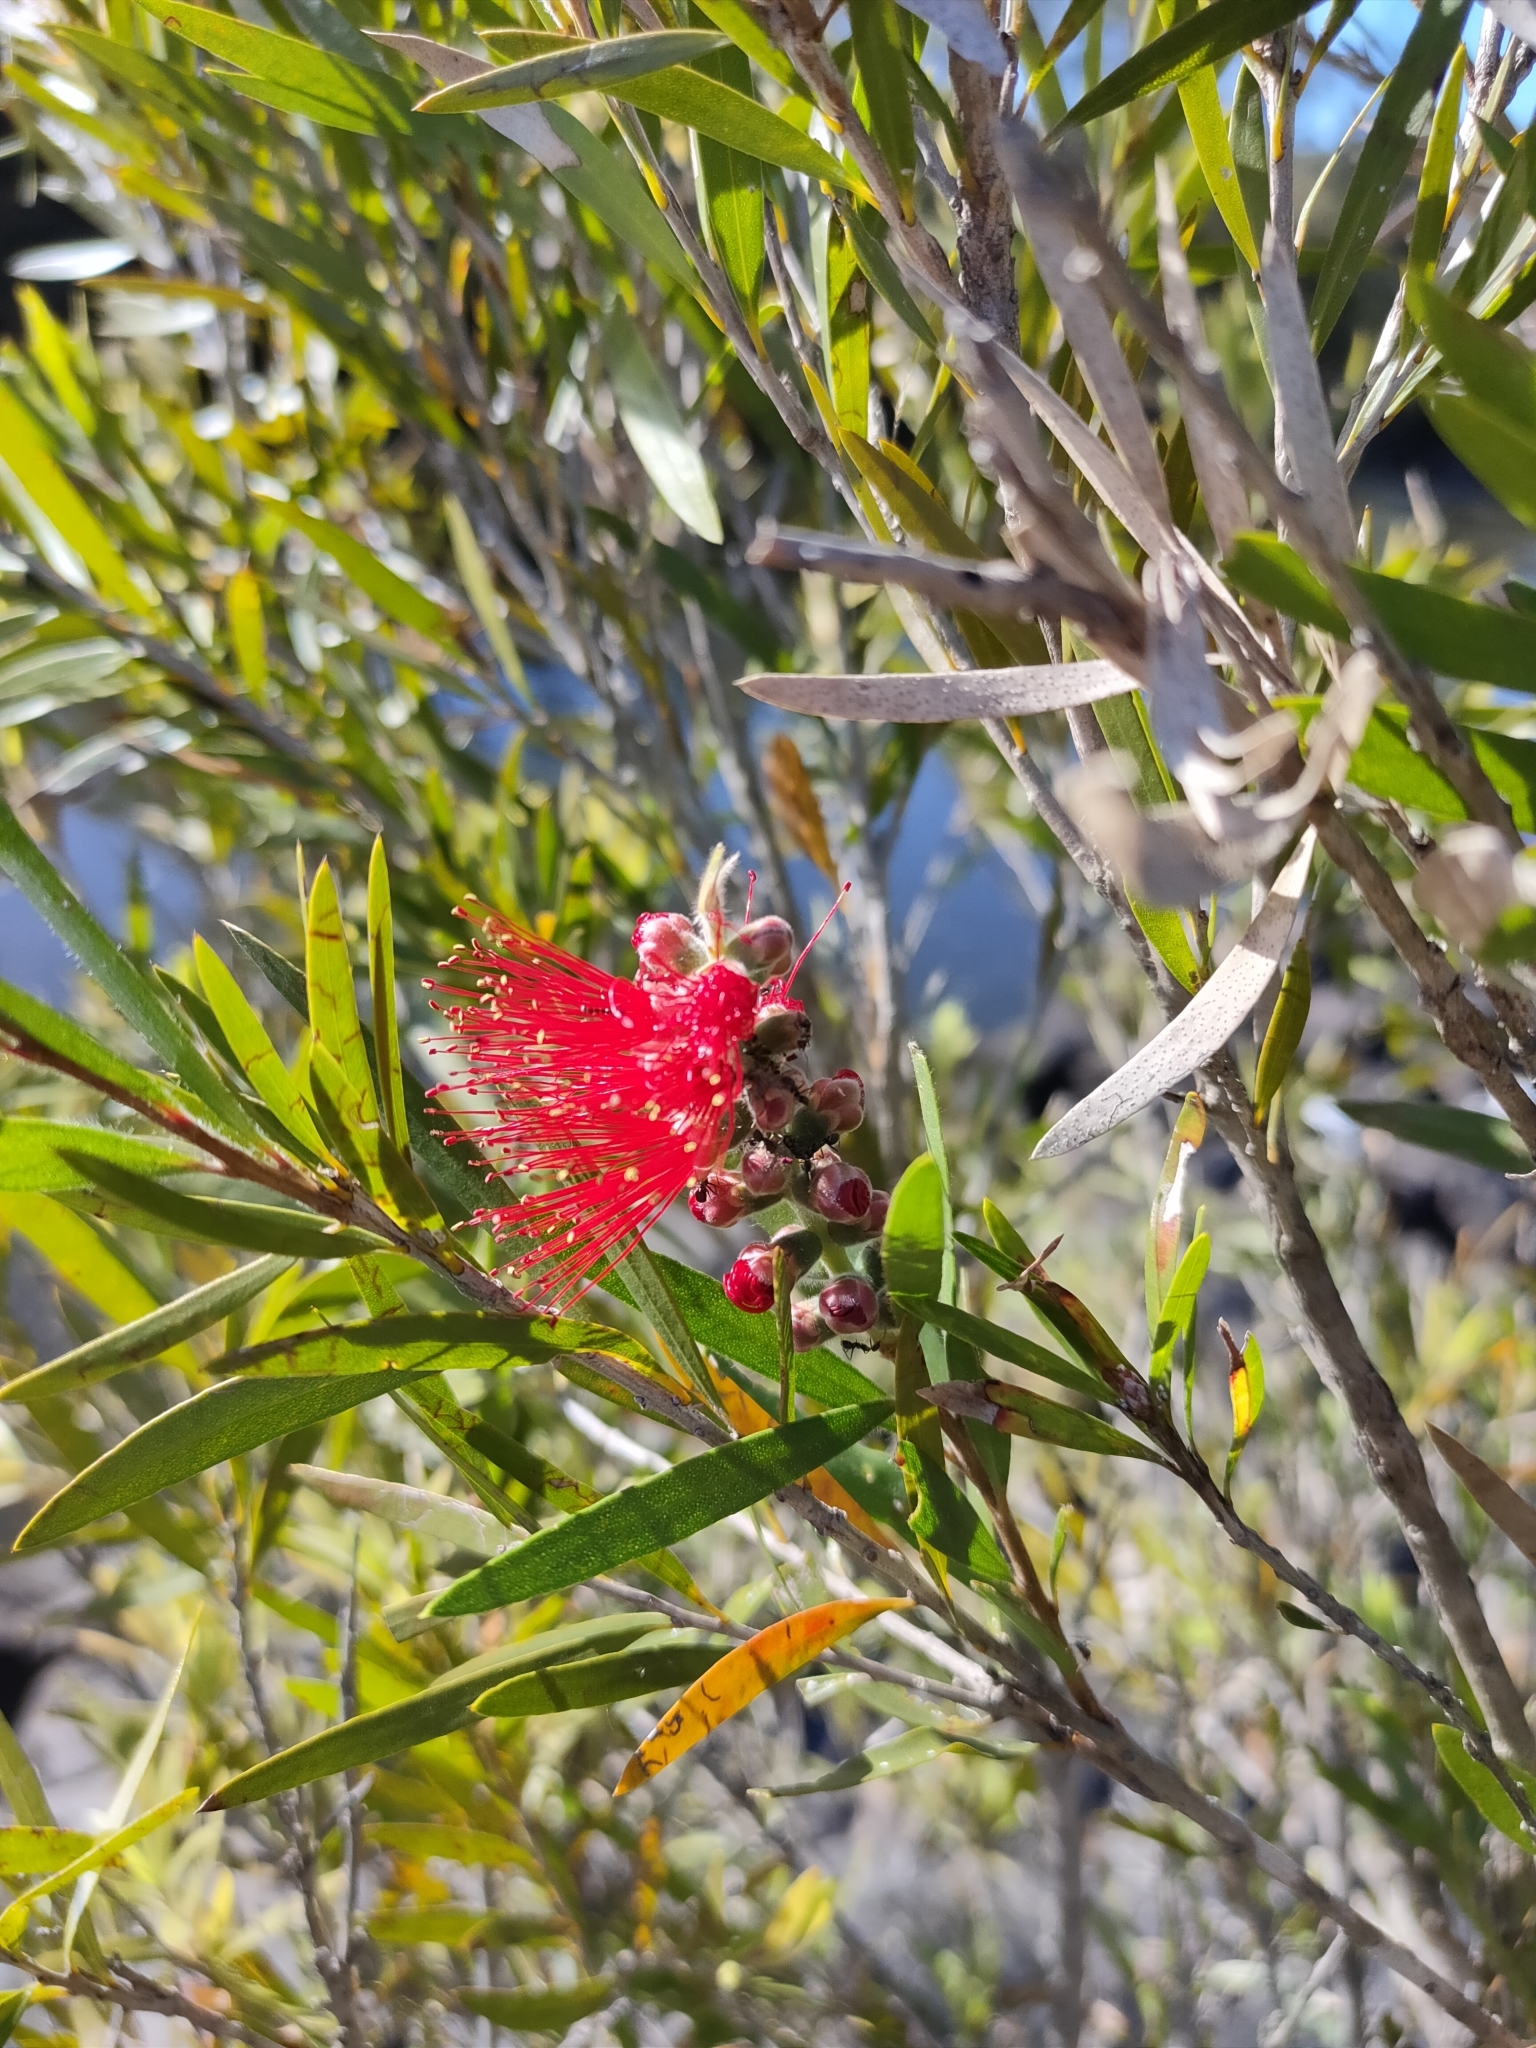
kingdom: Plantae
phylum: Tracheophyta
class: Magnoliopsida
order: Myrtales
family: Myrtaceae
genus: Callistemon
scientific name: Callistemon viminalis
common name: Drooping bottlebrush
